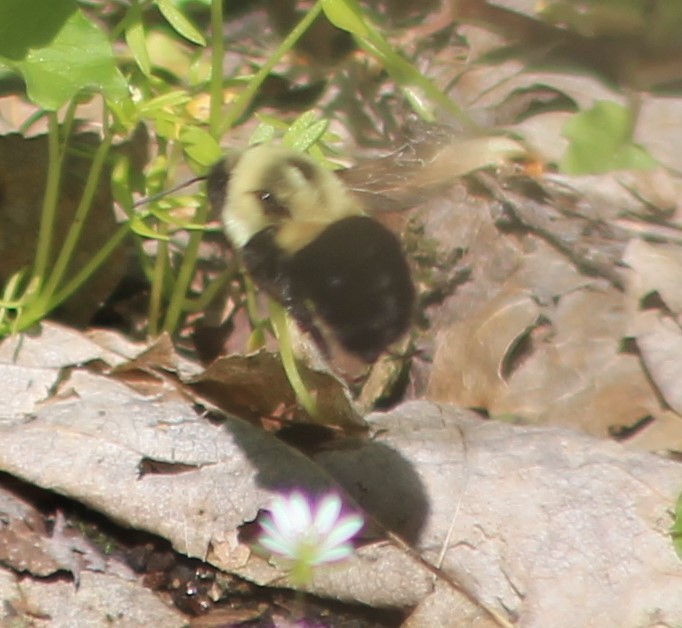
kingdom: Animalia
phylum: Arthropoda
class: Insecta
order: Hymenoptera
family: Apidae
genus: Bombus
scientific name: Bombus impatiens
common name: Common eastern bumble bee
